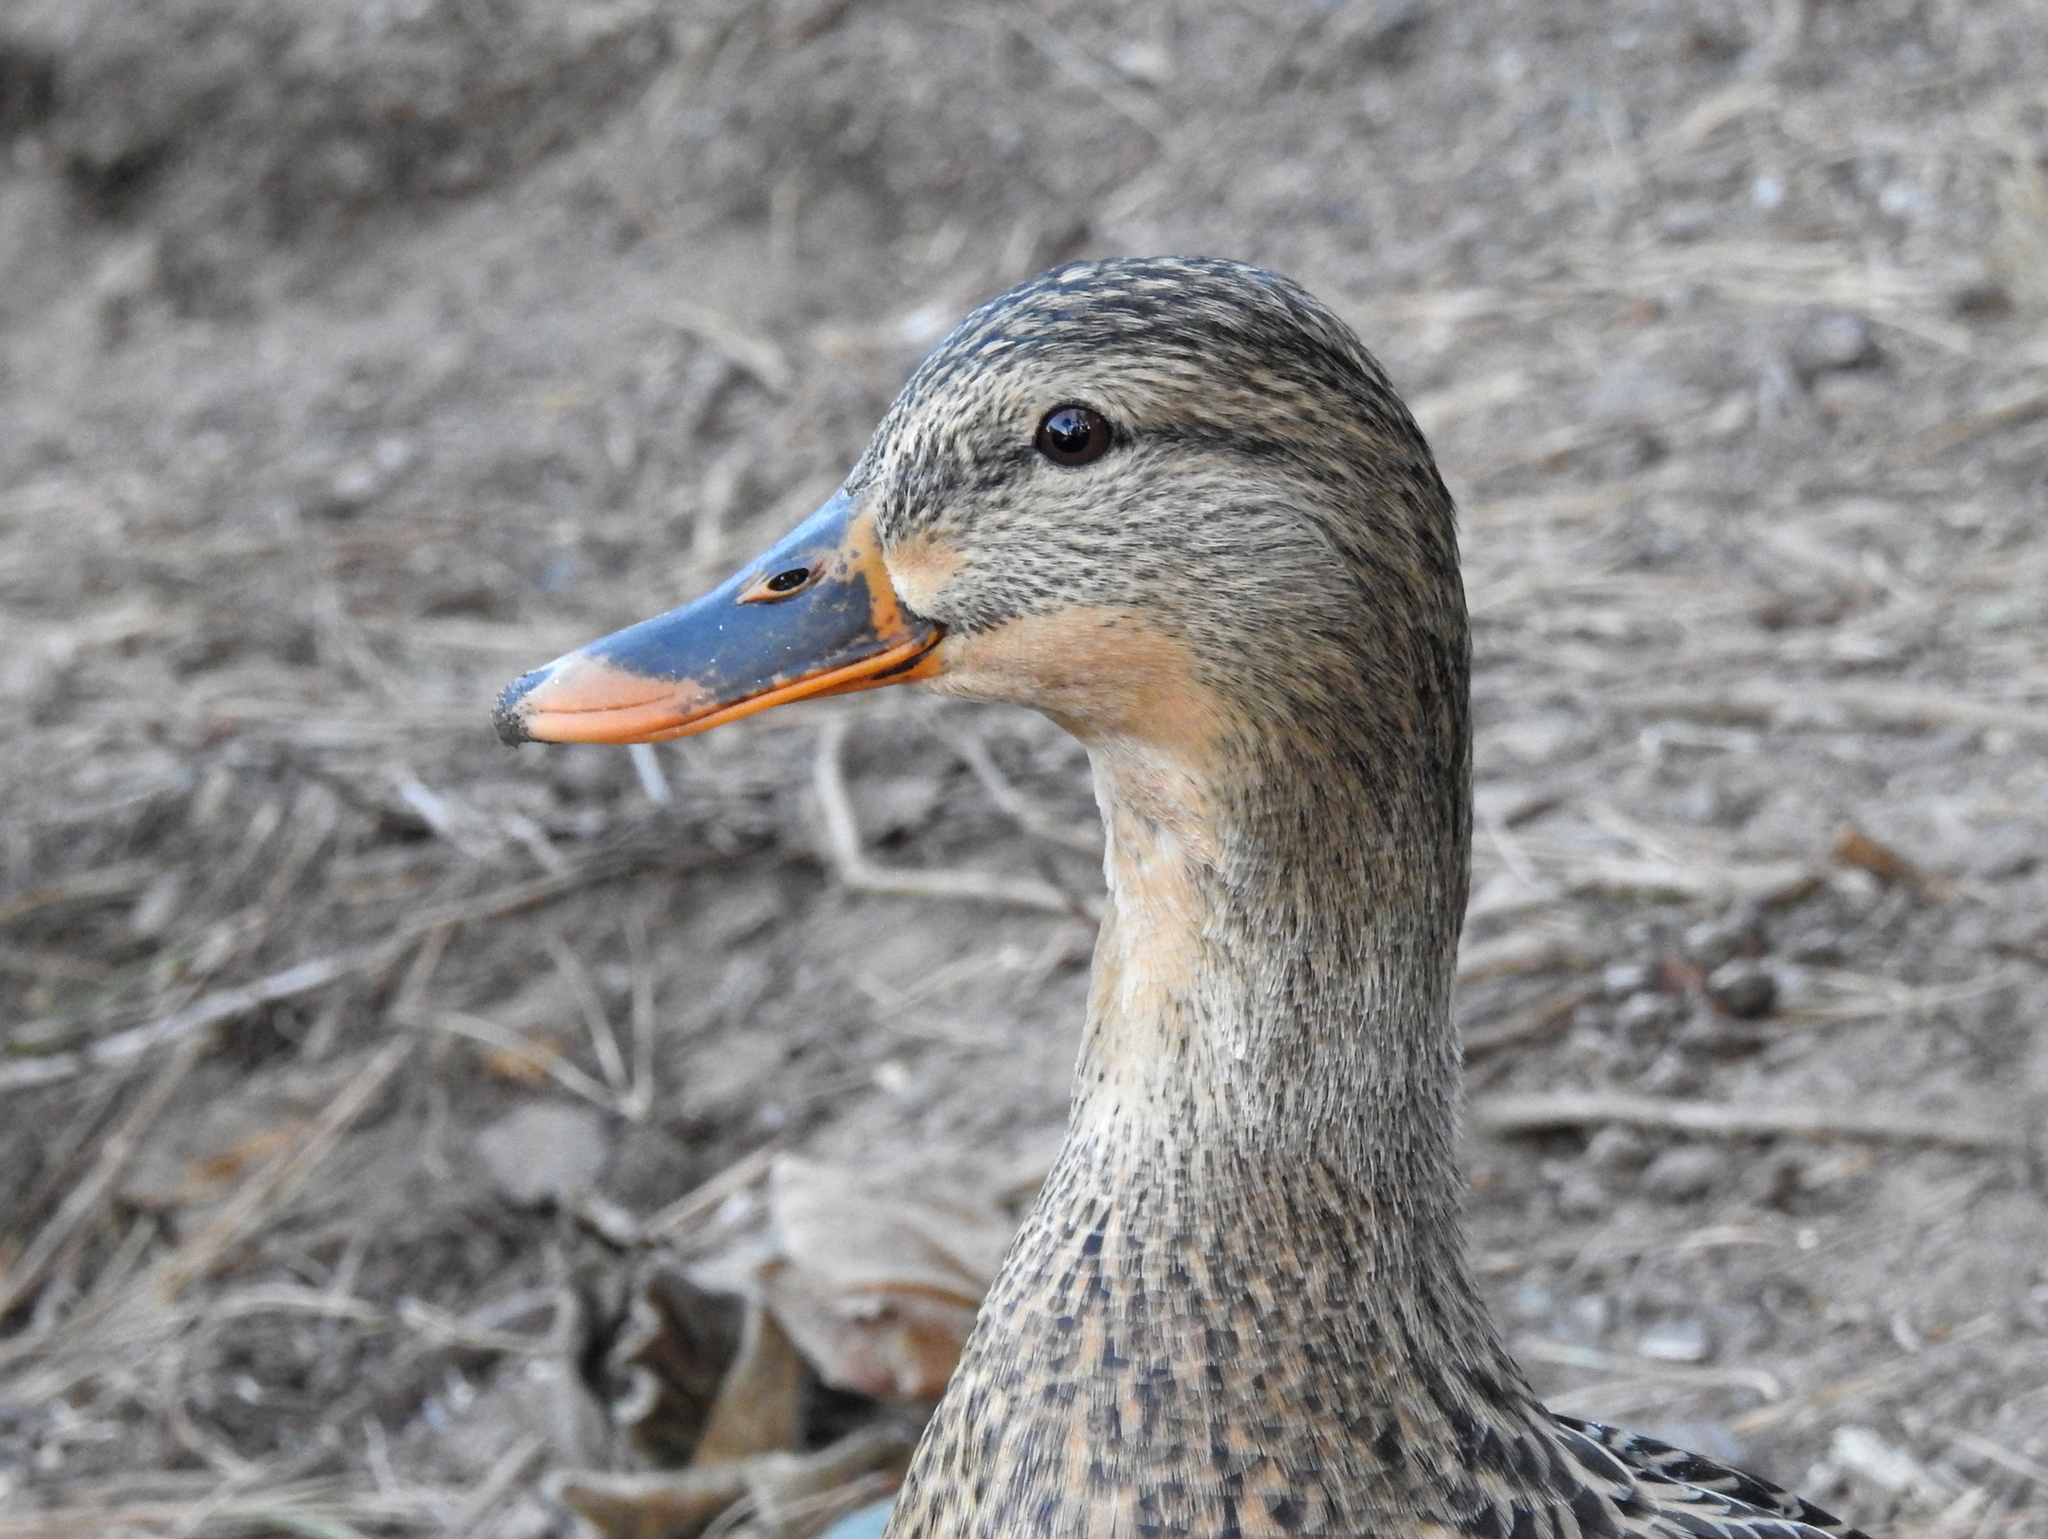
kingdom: Animalia
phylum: Chordata
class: Aves
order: Anseriformes
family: Anatidae
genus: Anas
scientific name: Anas platyrhynchos
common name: Mallard
